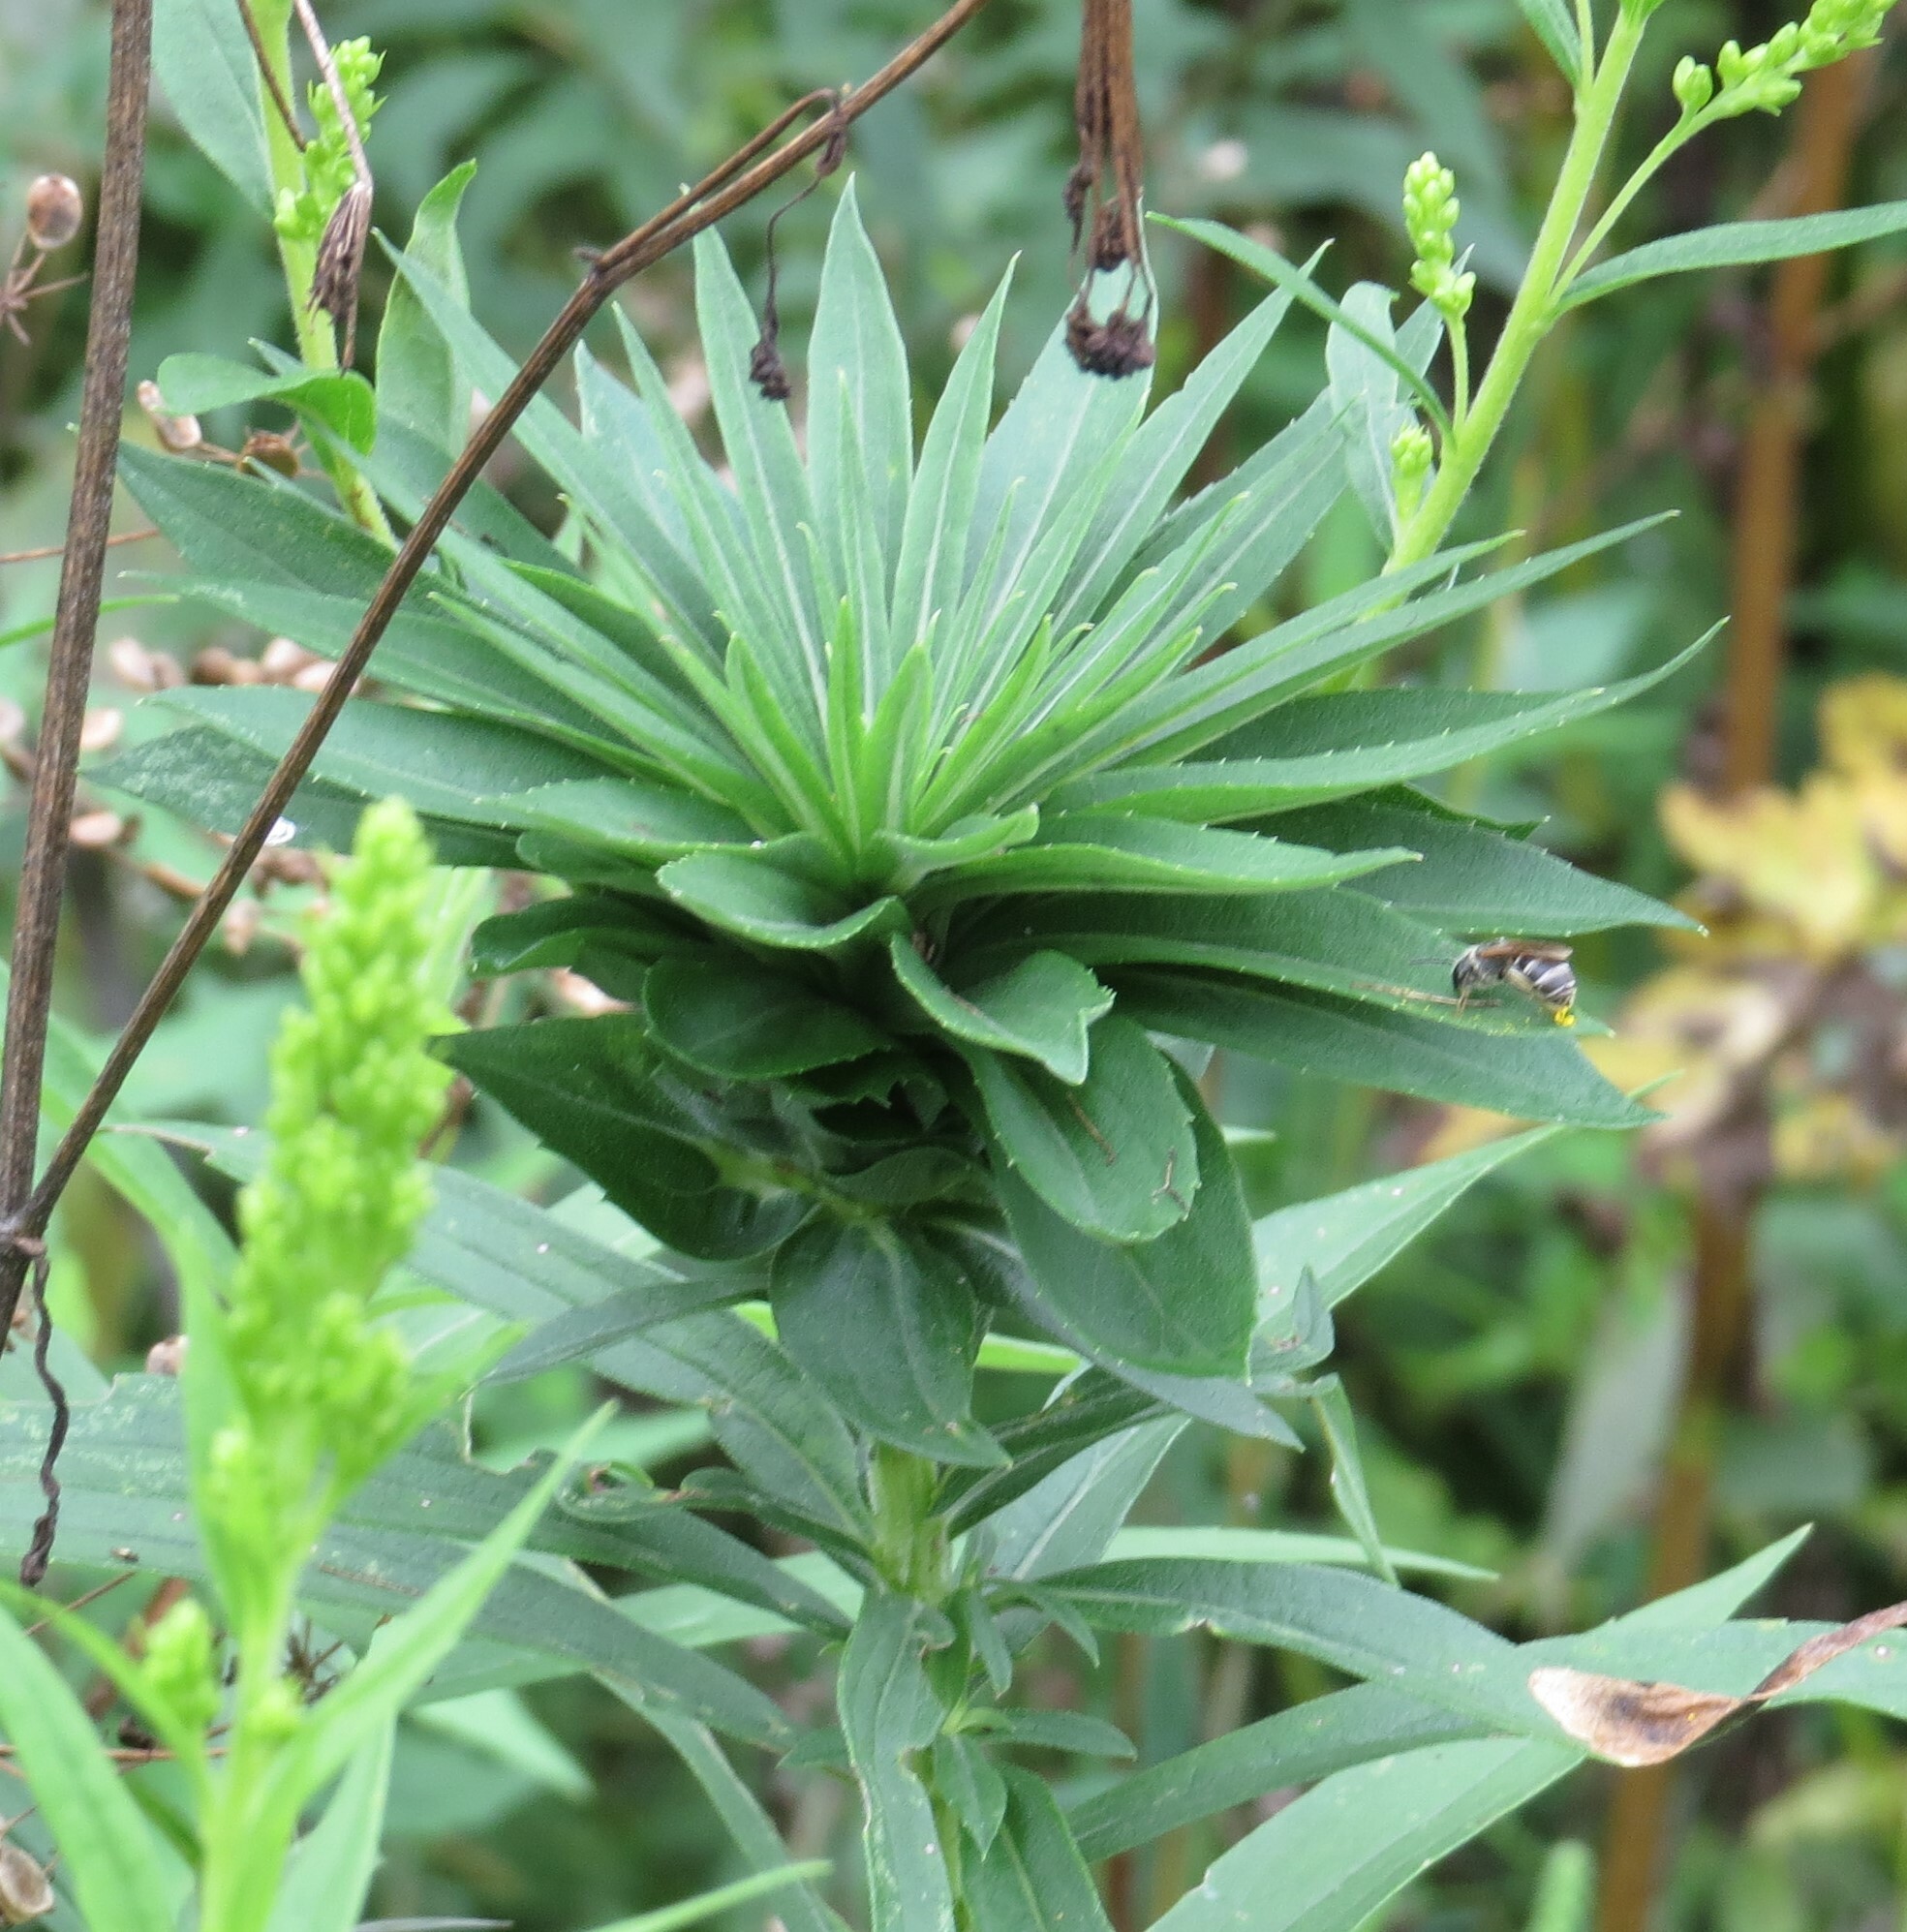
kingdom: Animalia
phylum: Arthropoda
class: Insecta
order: Diptera
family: Cecidomyiidae
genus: Rhopalomyia
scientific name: Rhopalomyia solidaginis
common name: Goldenrod bunch gall midge
